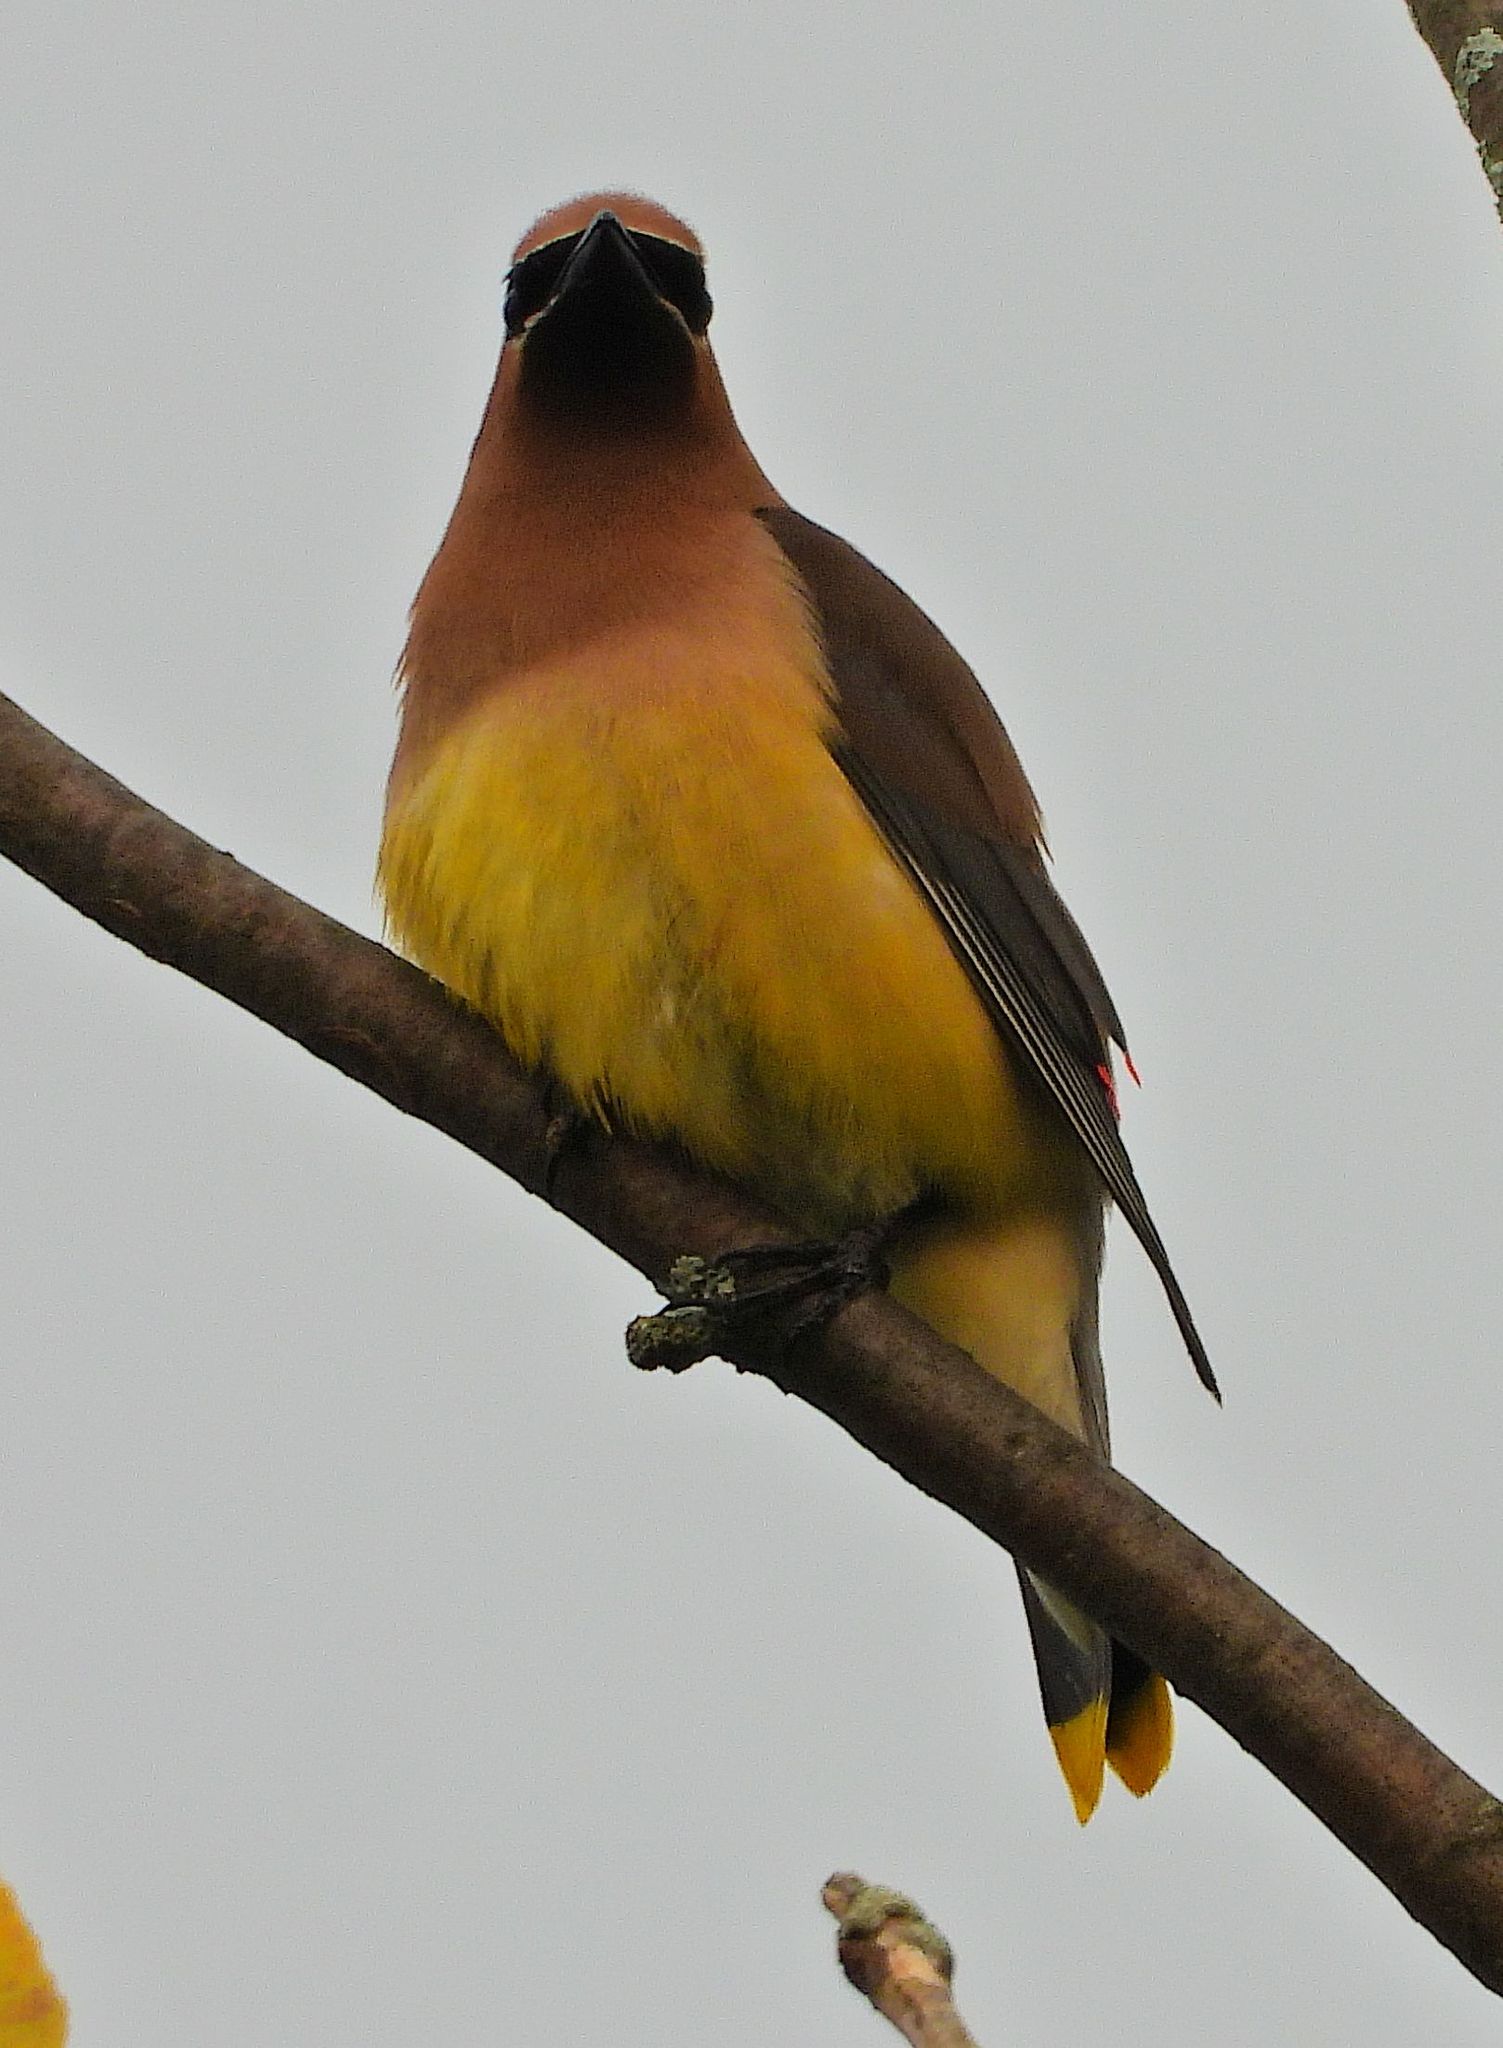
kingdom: Animalia
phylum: Chordata
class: Aves
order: Passeriformes
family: Bombycillidae
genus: Bombycilla
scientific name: Bombycilla cedrorum
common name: Cedar waxwing
